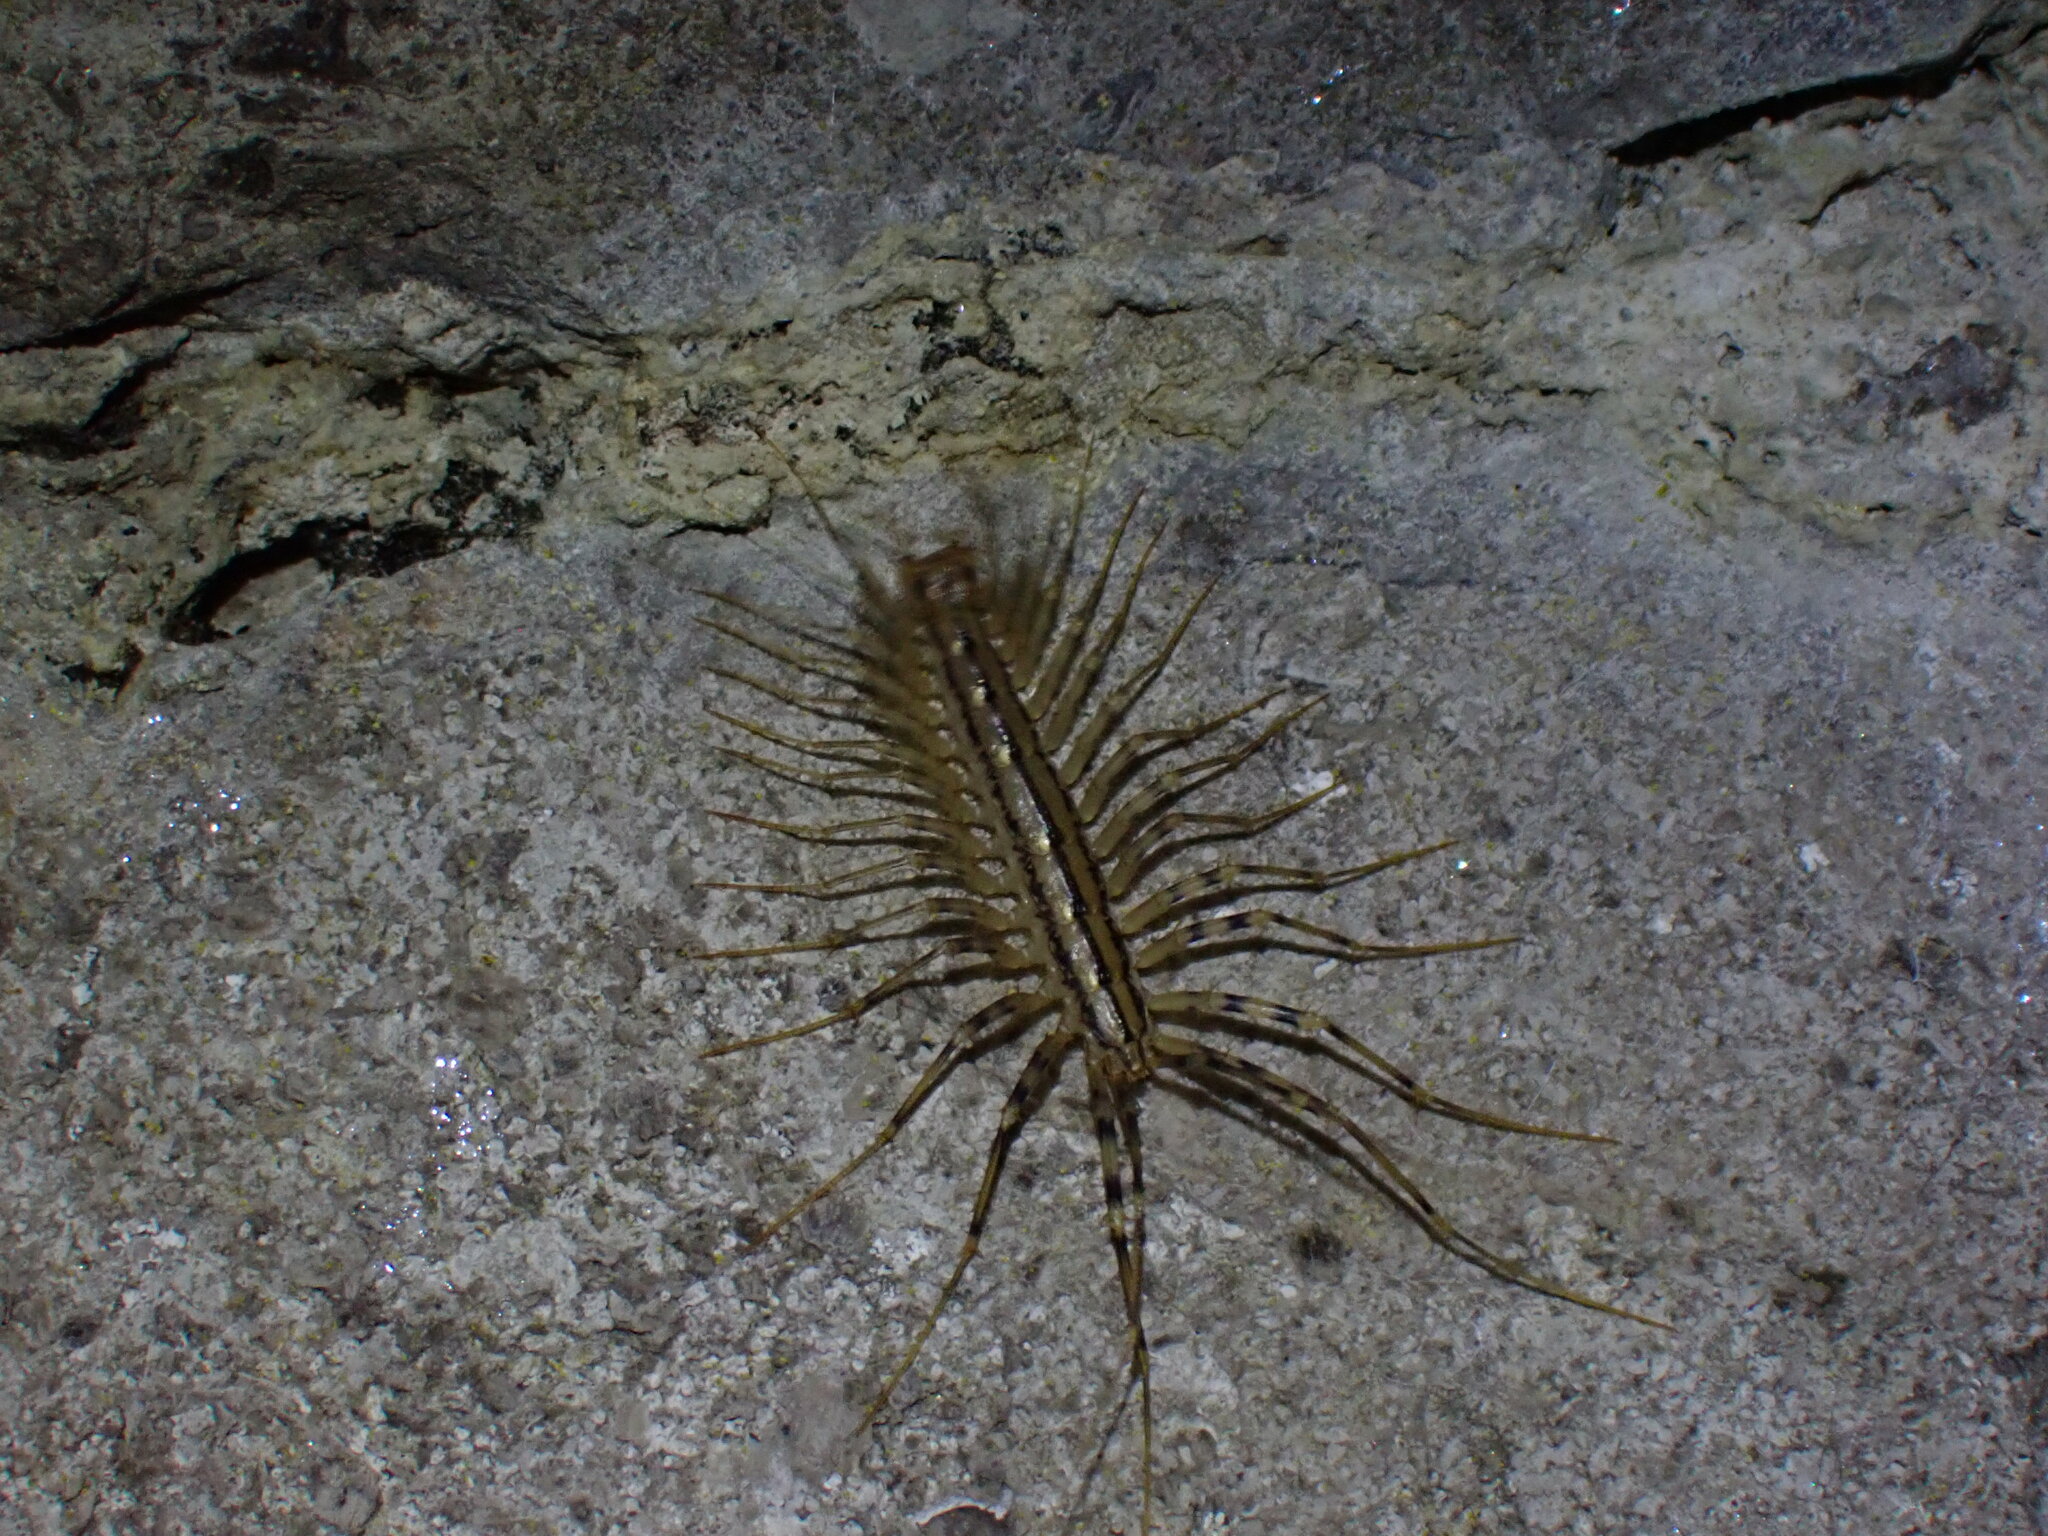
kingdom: Animalia
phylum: Arthropoda
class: Chilopoda
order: Scutigeromorpha
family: Scutigeridae
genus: Scutigera
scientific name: Scutigera coleoptrata
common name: House centipede
